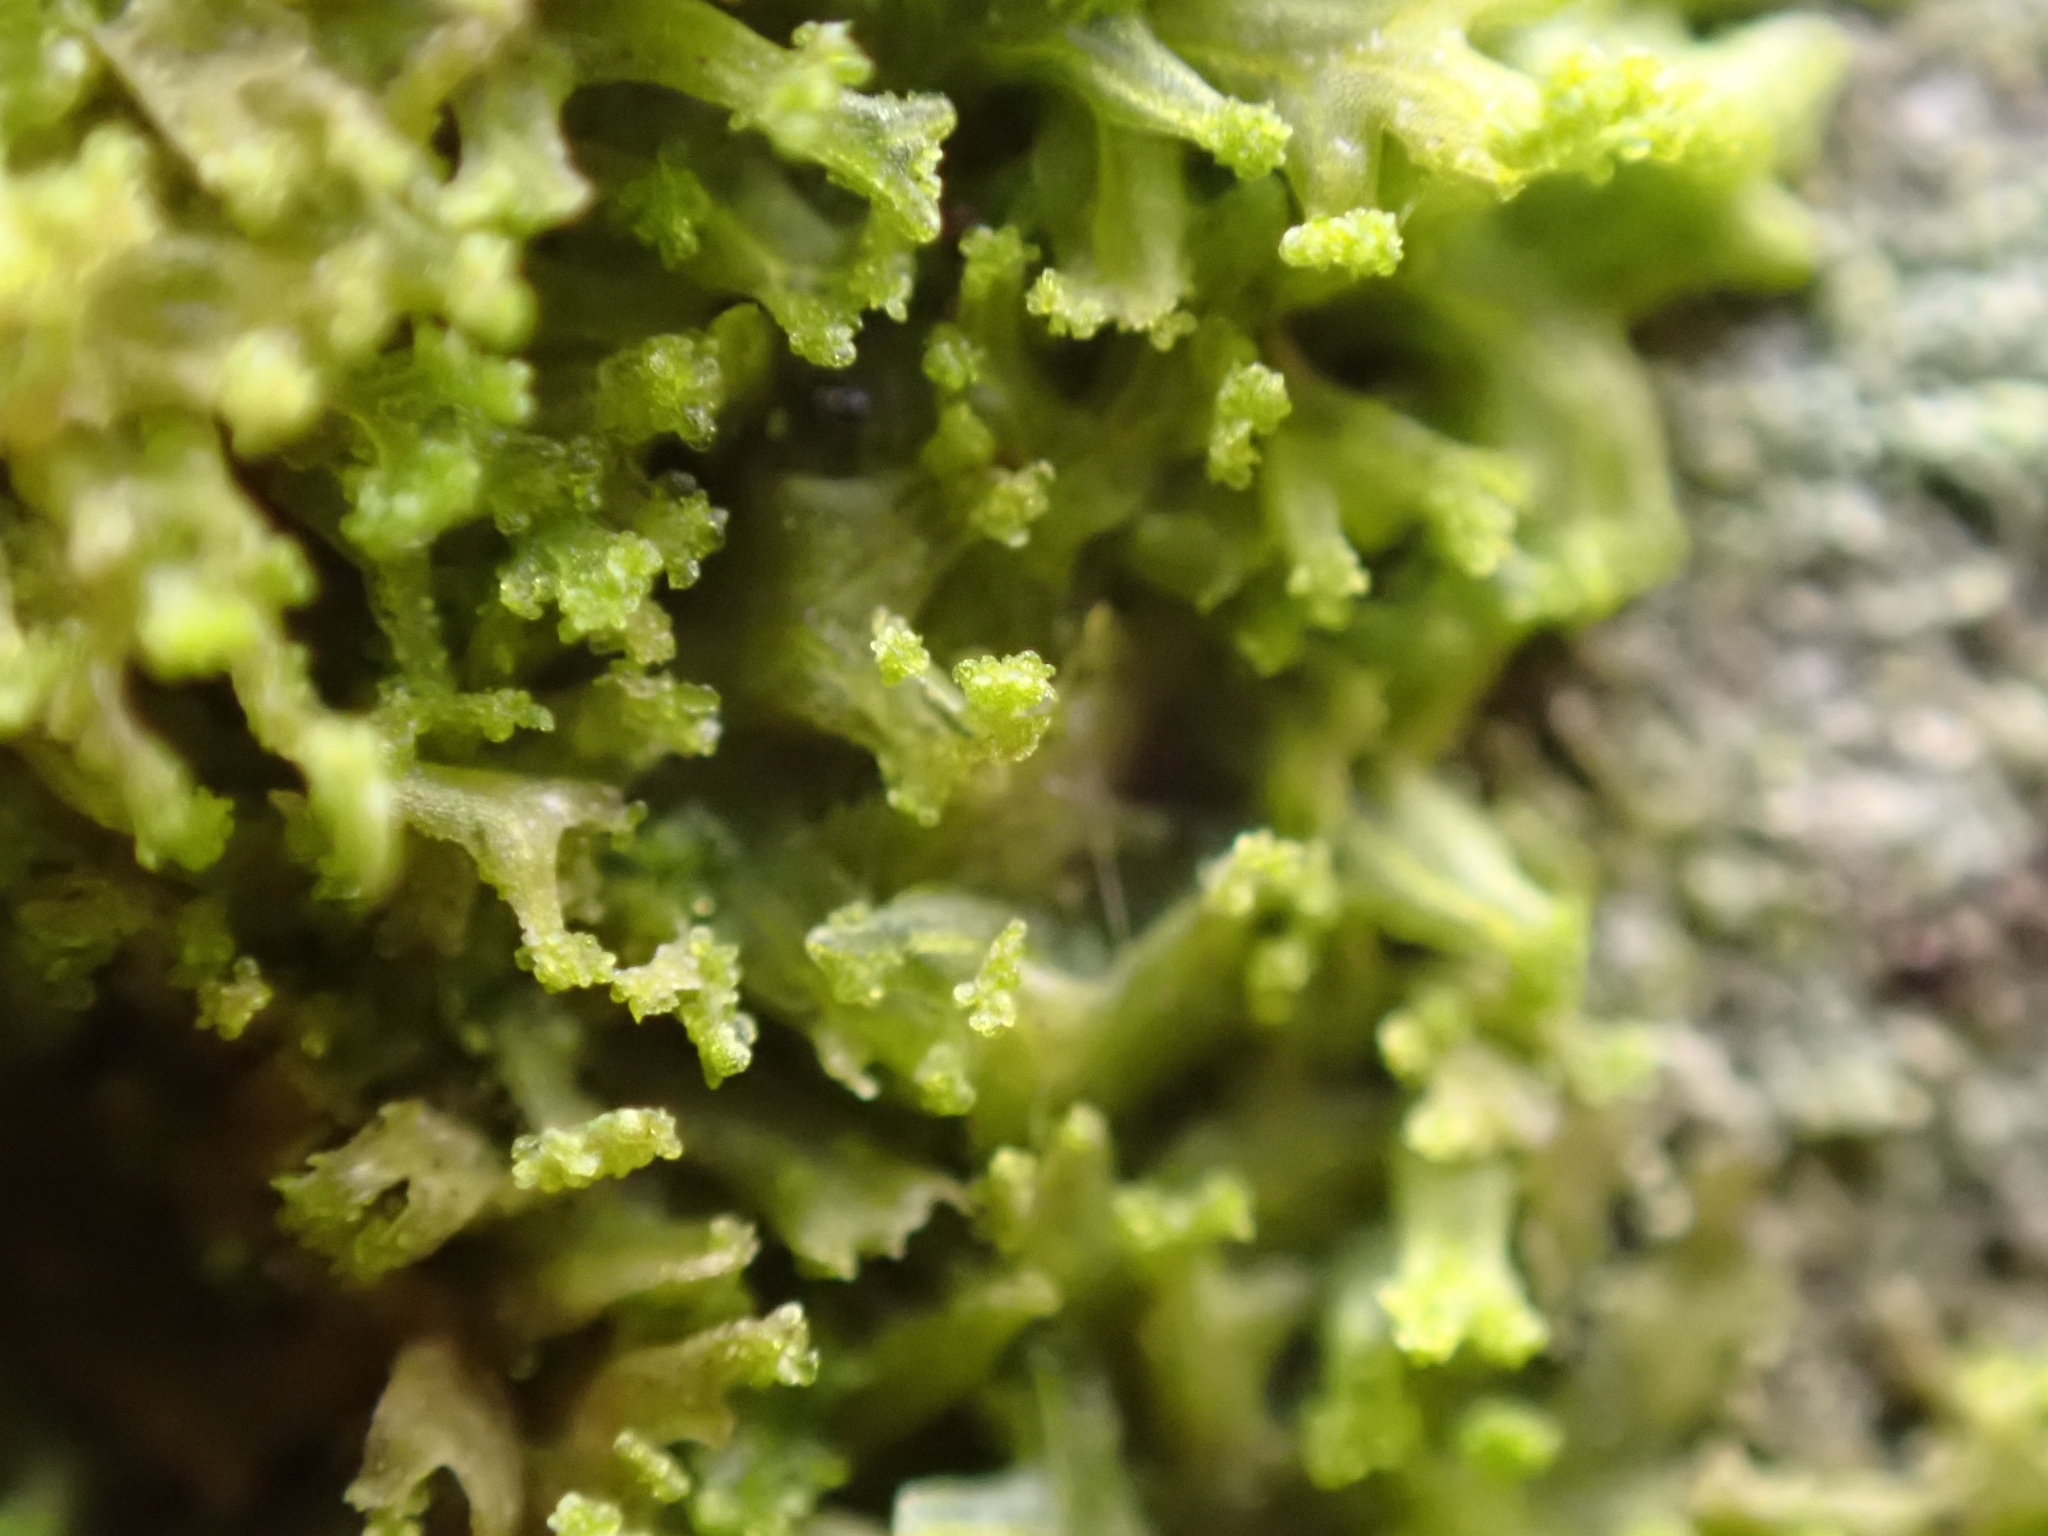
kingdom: Plantae
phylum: Marchantiophyta
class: Jungermanniopsida
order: Metzgeriales
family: Metzgeriaceae
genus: Metzgeria
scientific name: Metzgeria violacea
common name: Blueish veilwort
